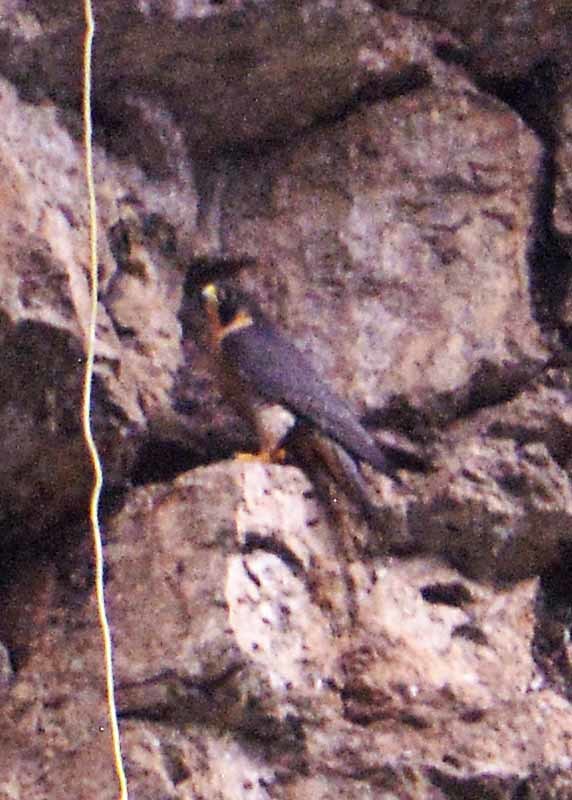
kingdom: Animalia
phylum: Chordata
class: Aves
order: Falconiformes
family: Falconidae
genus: Falco
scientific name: Falco peregrinus
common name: Peregrine falcon
